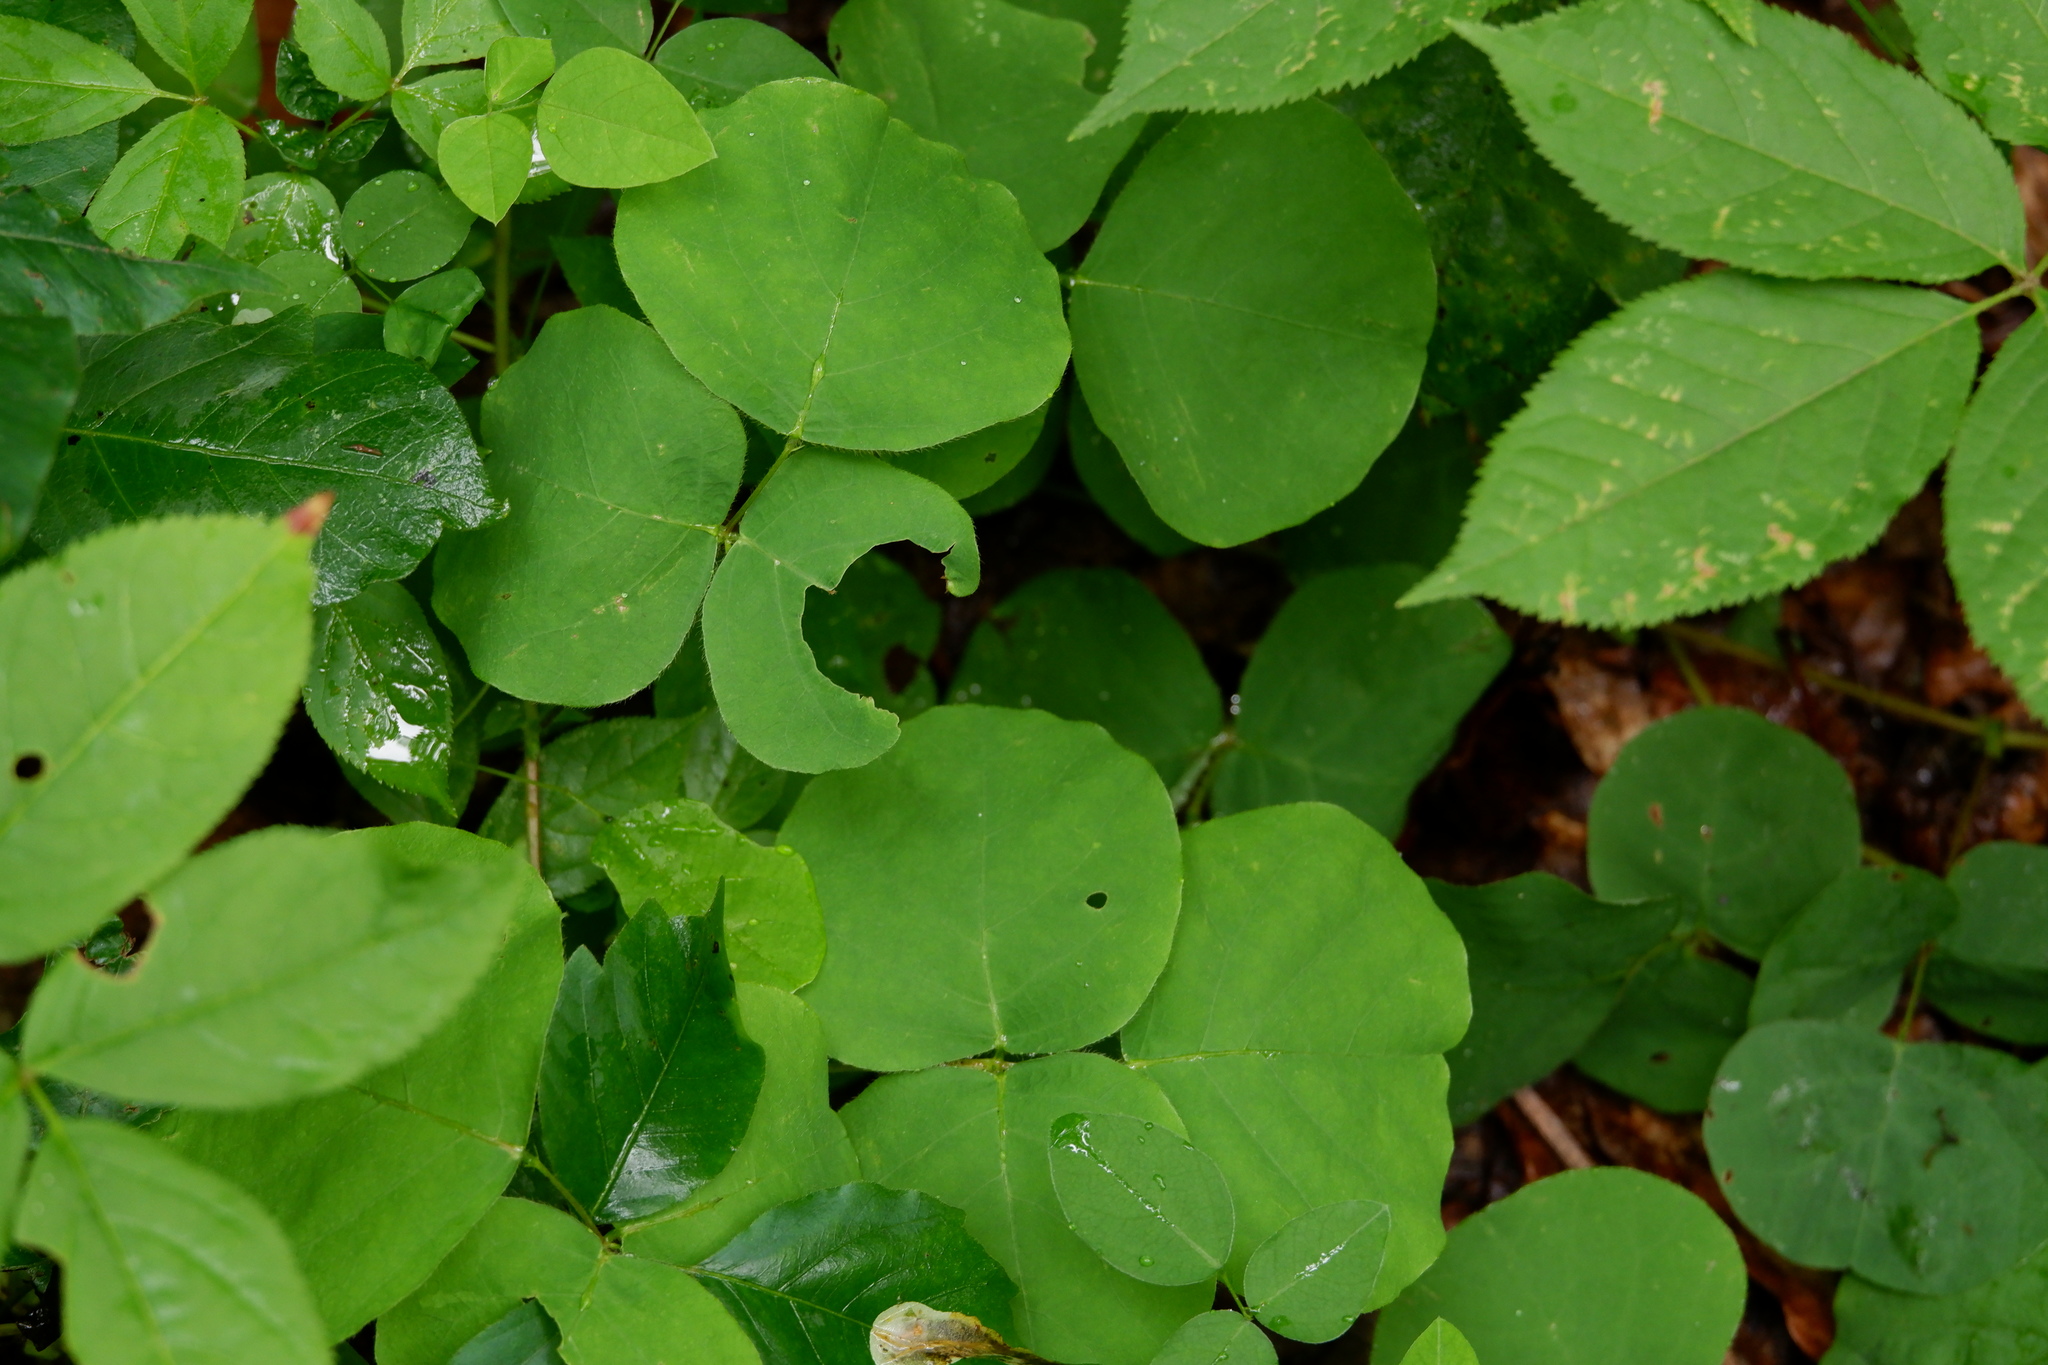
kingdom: Plantae
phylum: Tracheophyta
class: Magnoliopsida
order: Fabales
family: Fabaceae
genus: Desmodium
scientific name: Desmodium rotundifolium
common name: Dollarleaf
